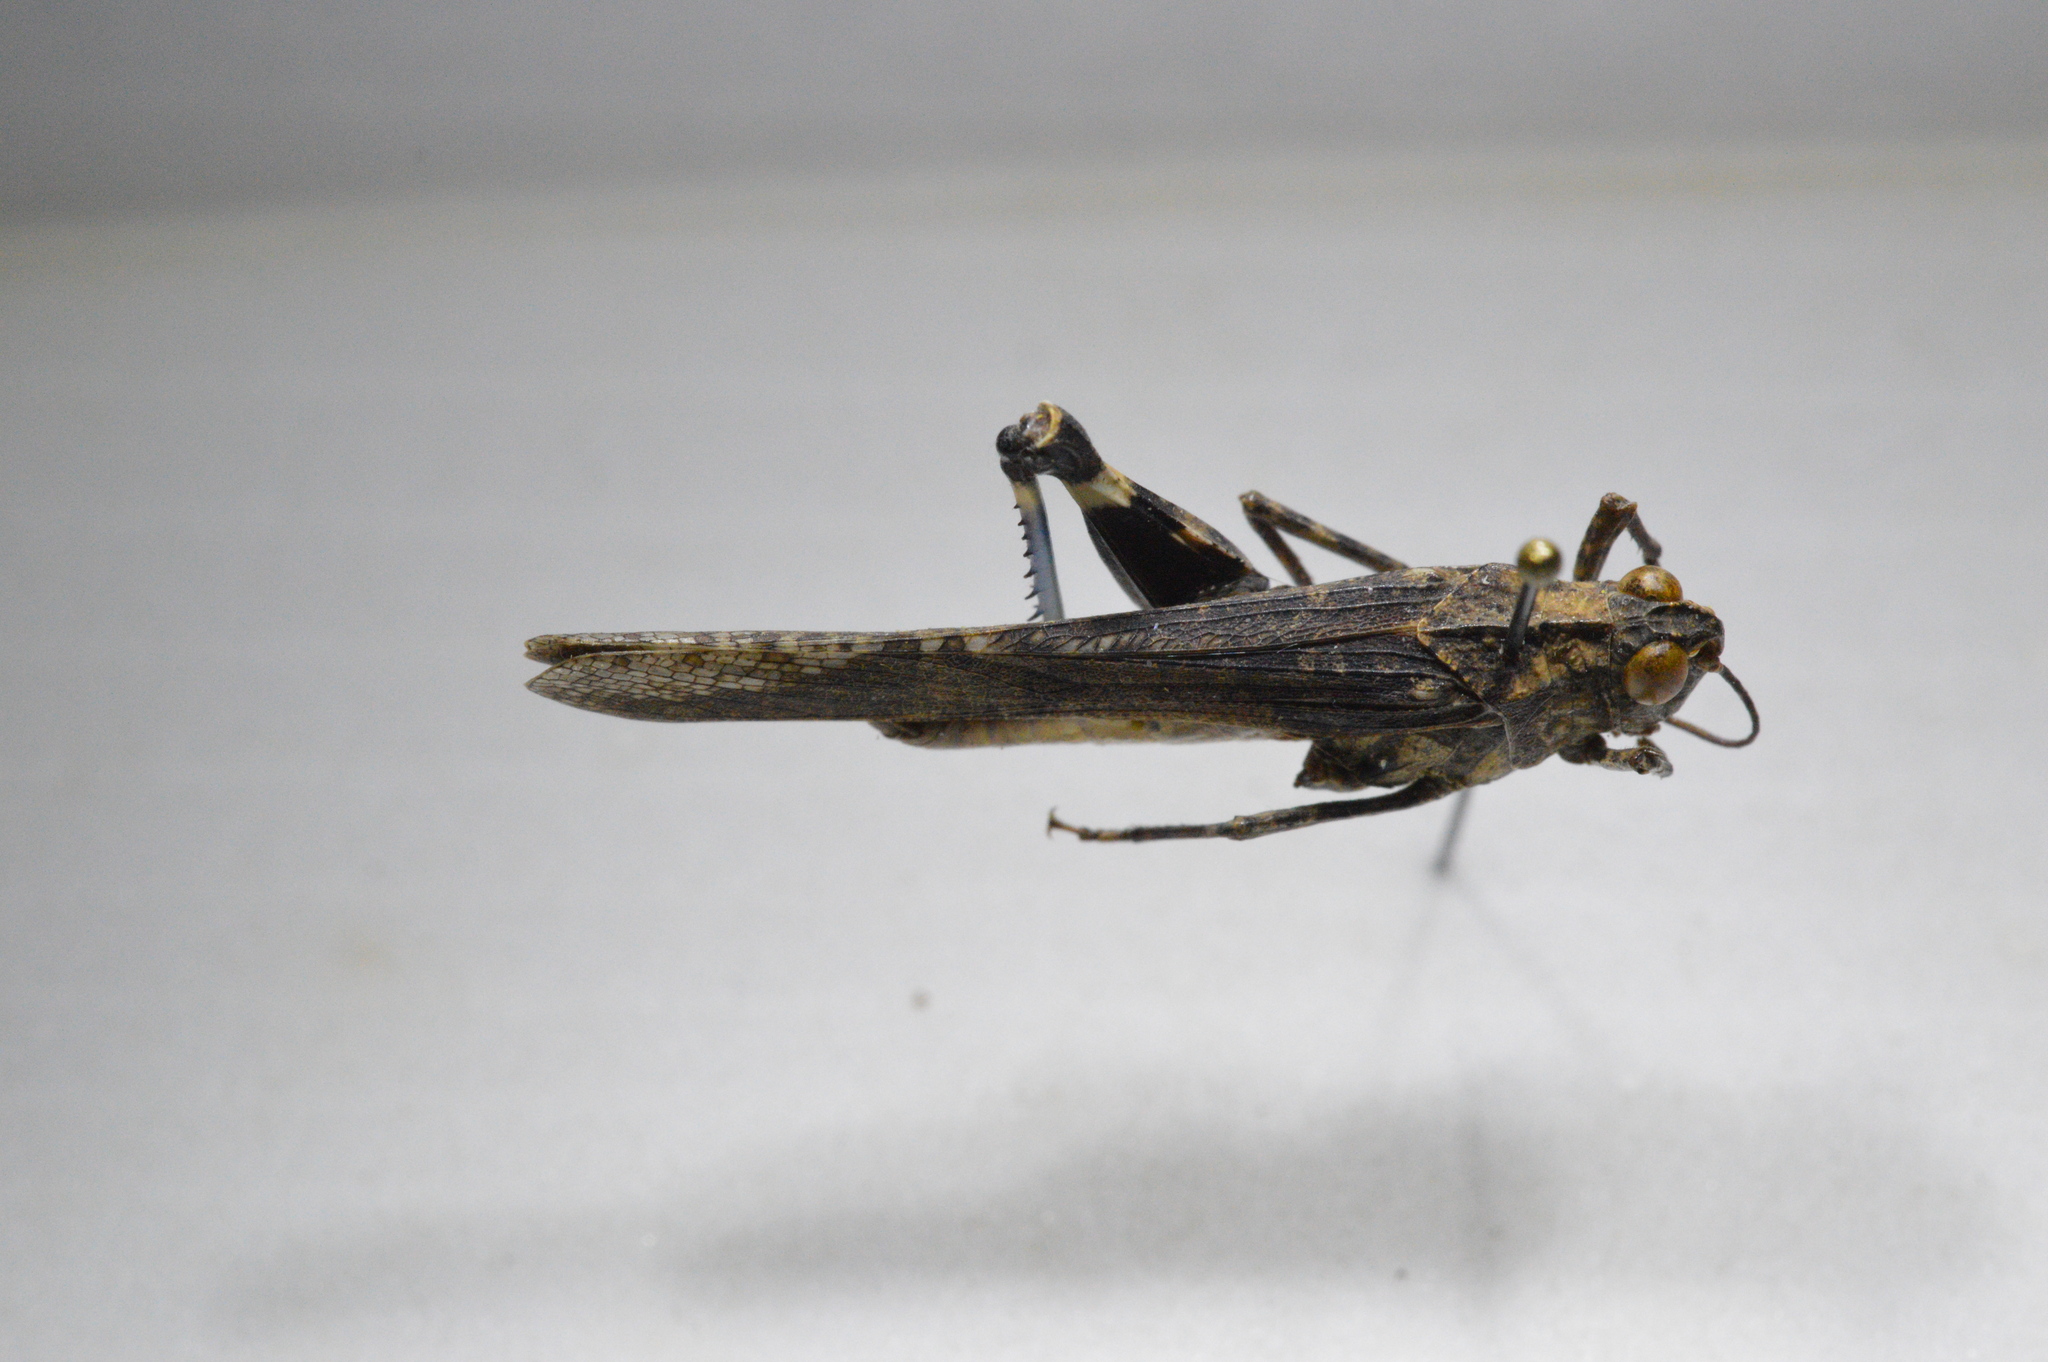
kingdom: Animalia
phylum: Arthropoda
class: Insecta
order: Orthoptera
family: Acrididae
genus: Lactista
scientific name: Lactista gibbosus
